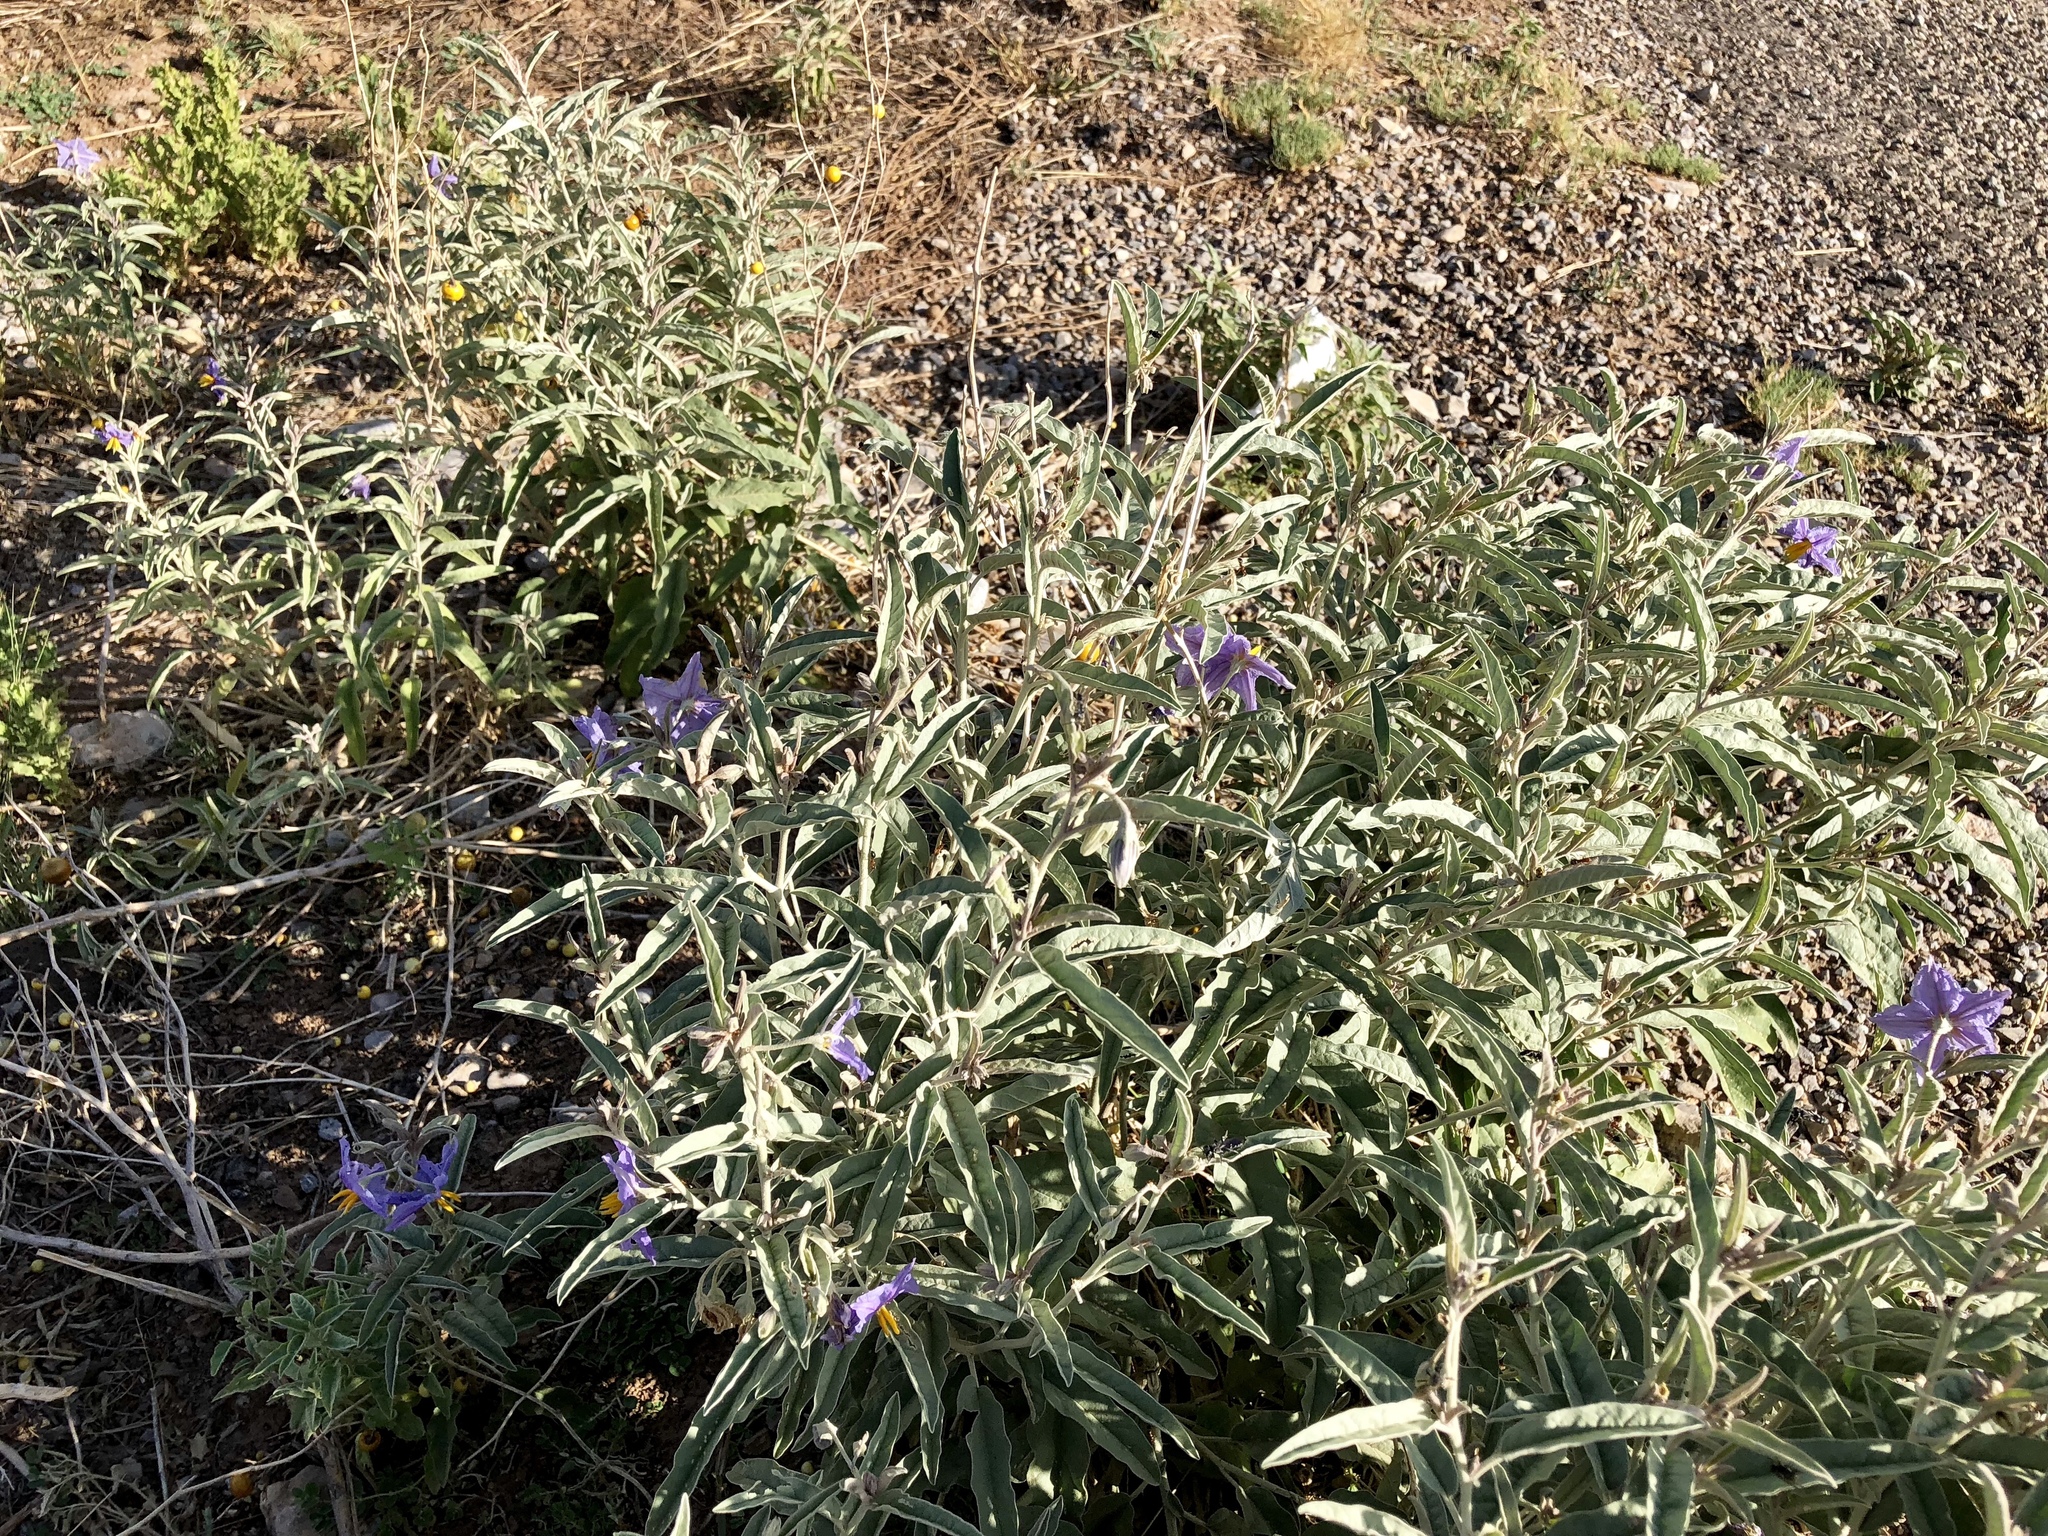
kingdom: Plantae
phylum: Tracheophyta
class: Magnoliopsida
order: Solanales
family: Solanaceae
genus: Solanum
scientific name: Solanum elaeagnifolium
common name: Silverleaf nightshade
